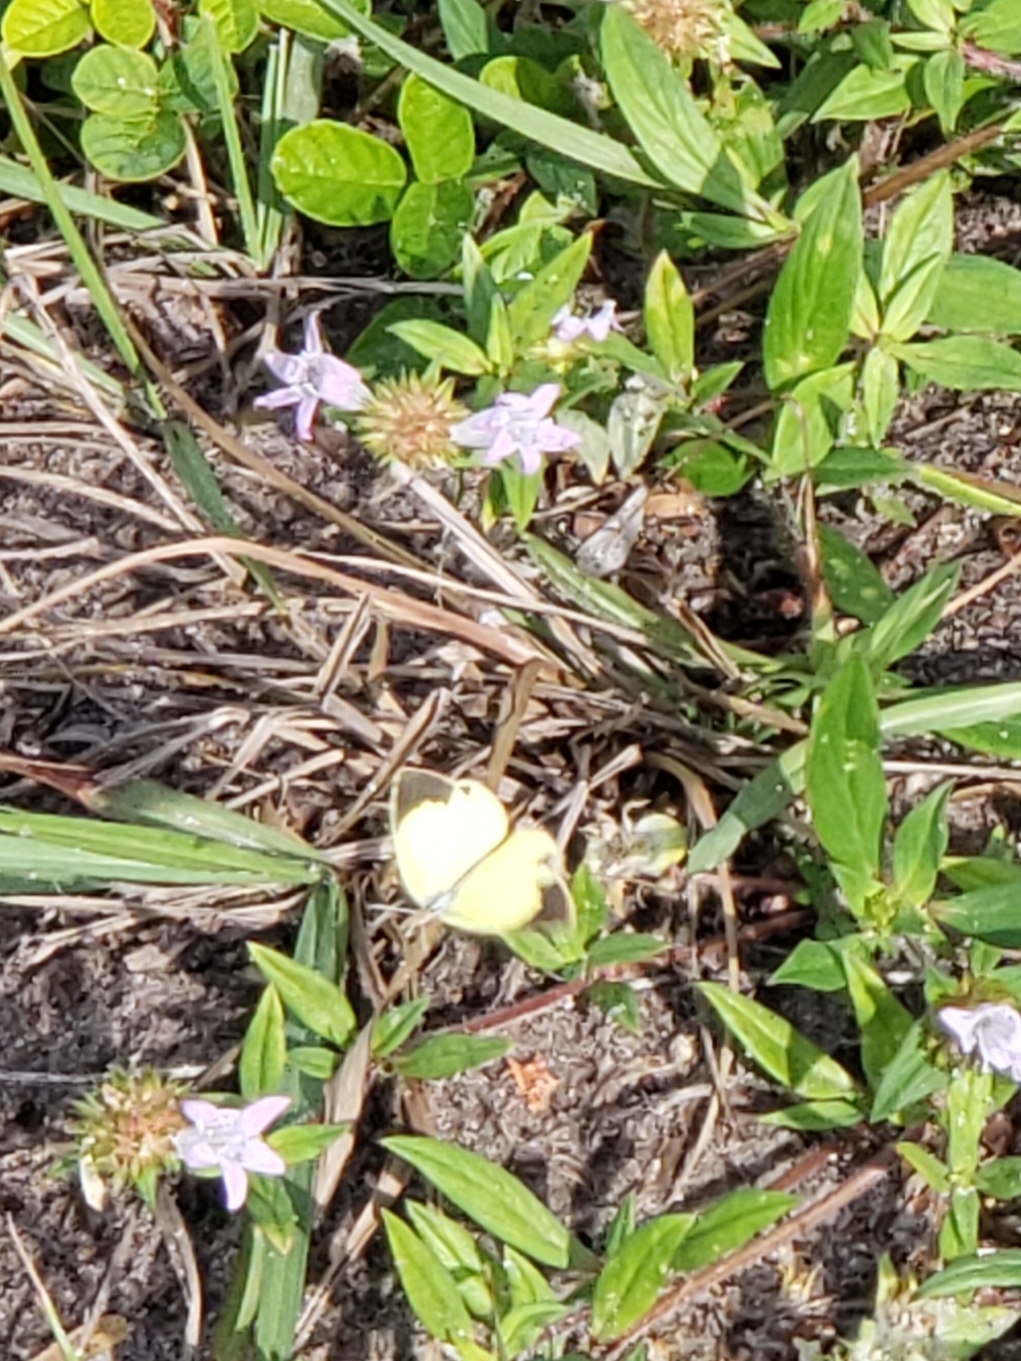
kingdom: Animalia
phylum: Arthropoda
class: Insecta
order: Lepidoptera
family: Pieridae
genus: Eurema
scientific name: Eurema daira
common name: Barred sulphur
